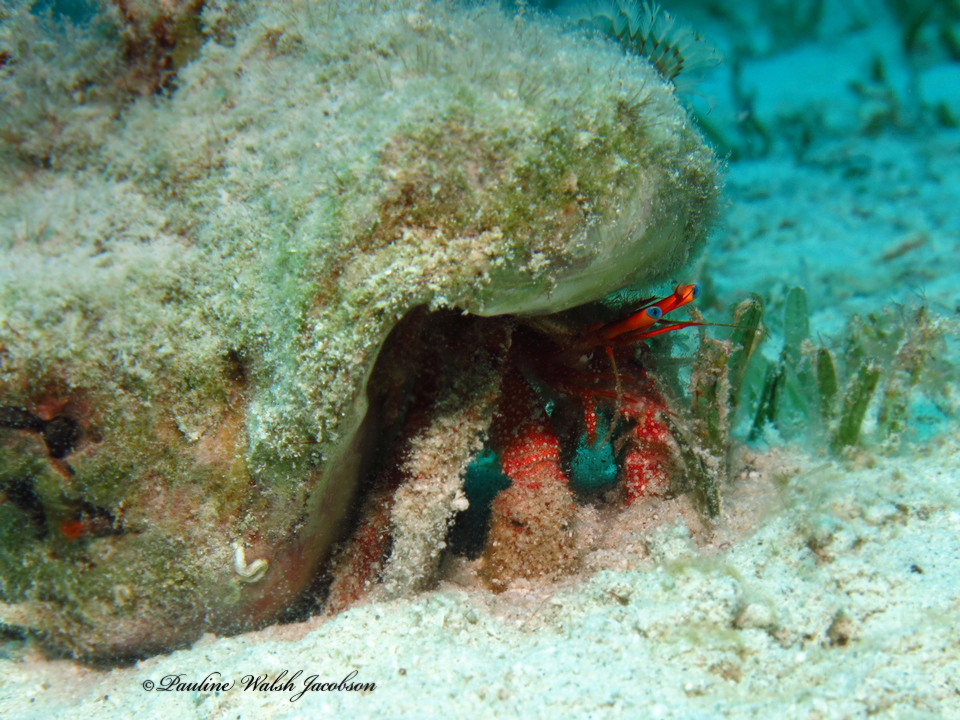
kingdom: Animalia
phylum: Arthropoda
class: Malacostraca
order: Decapoda
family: Diogenidae
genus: Paguristes
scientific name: Paguristes sericeus
